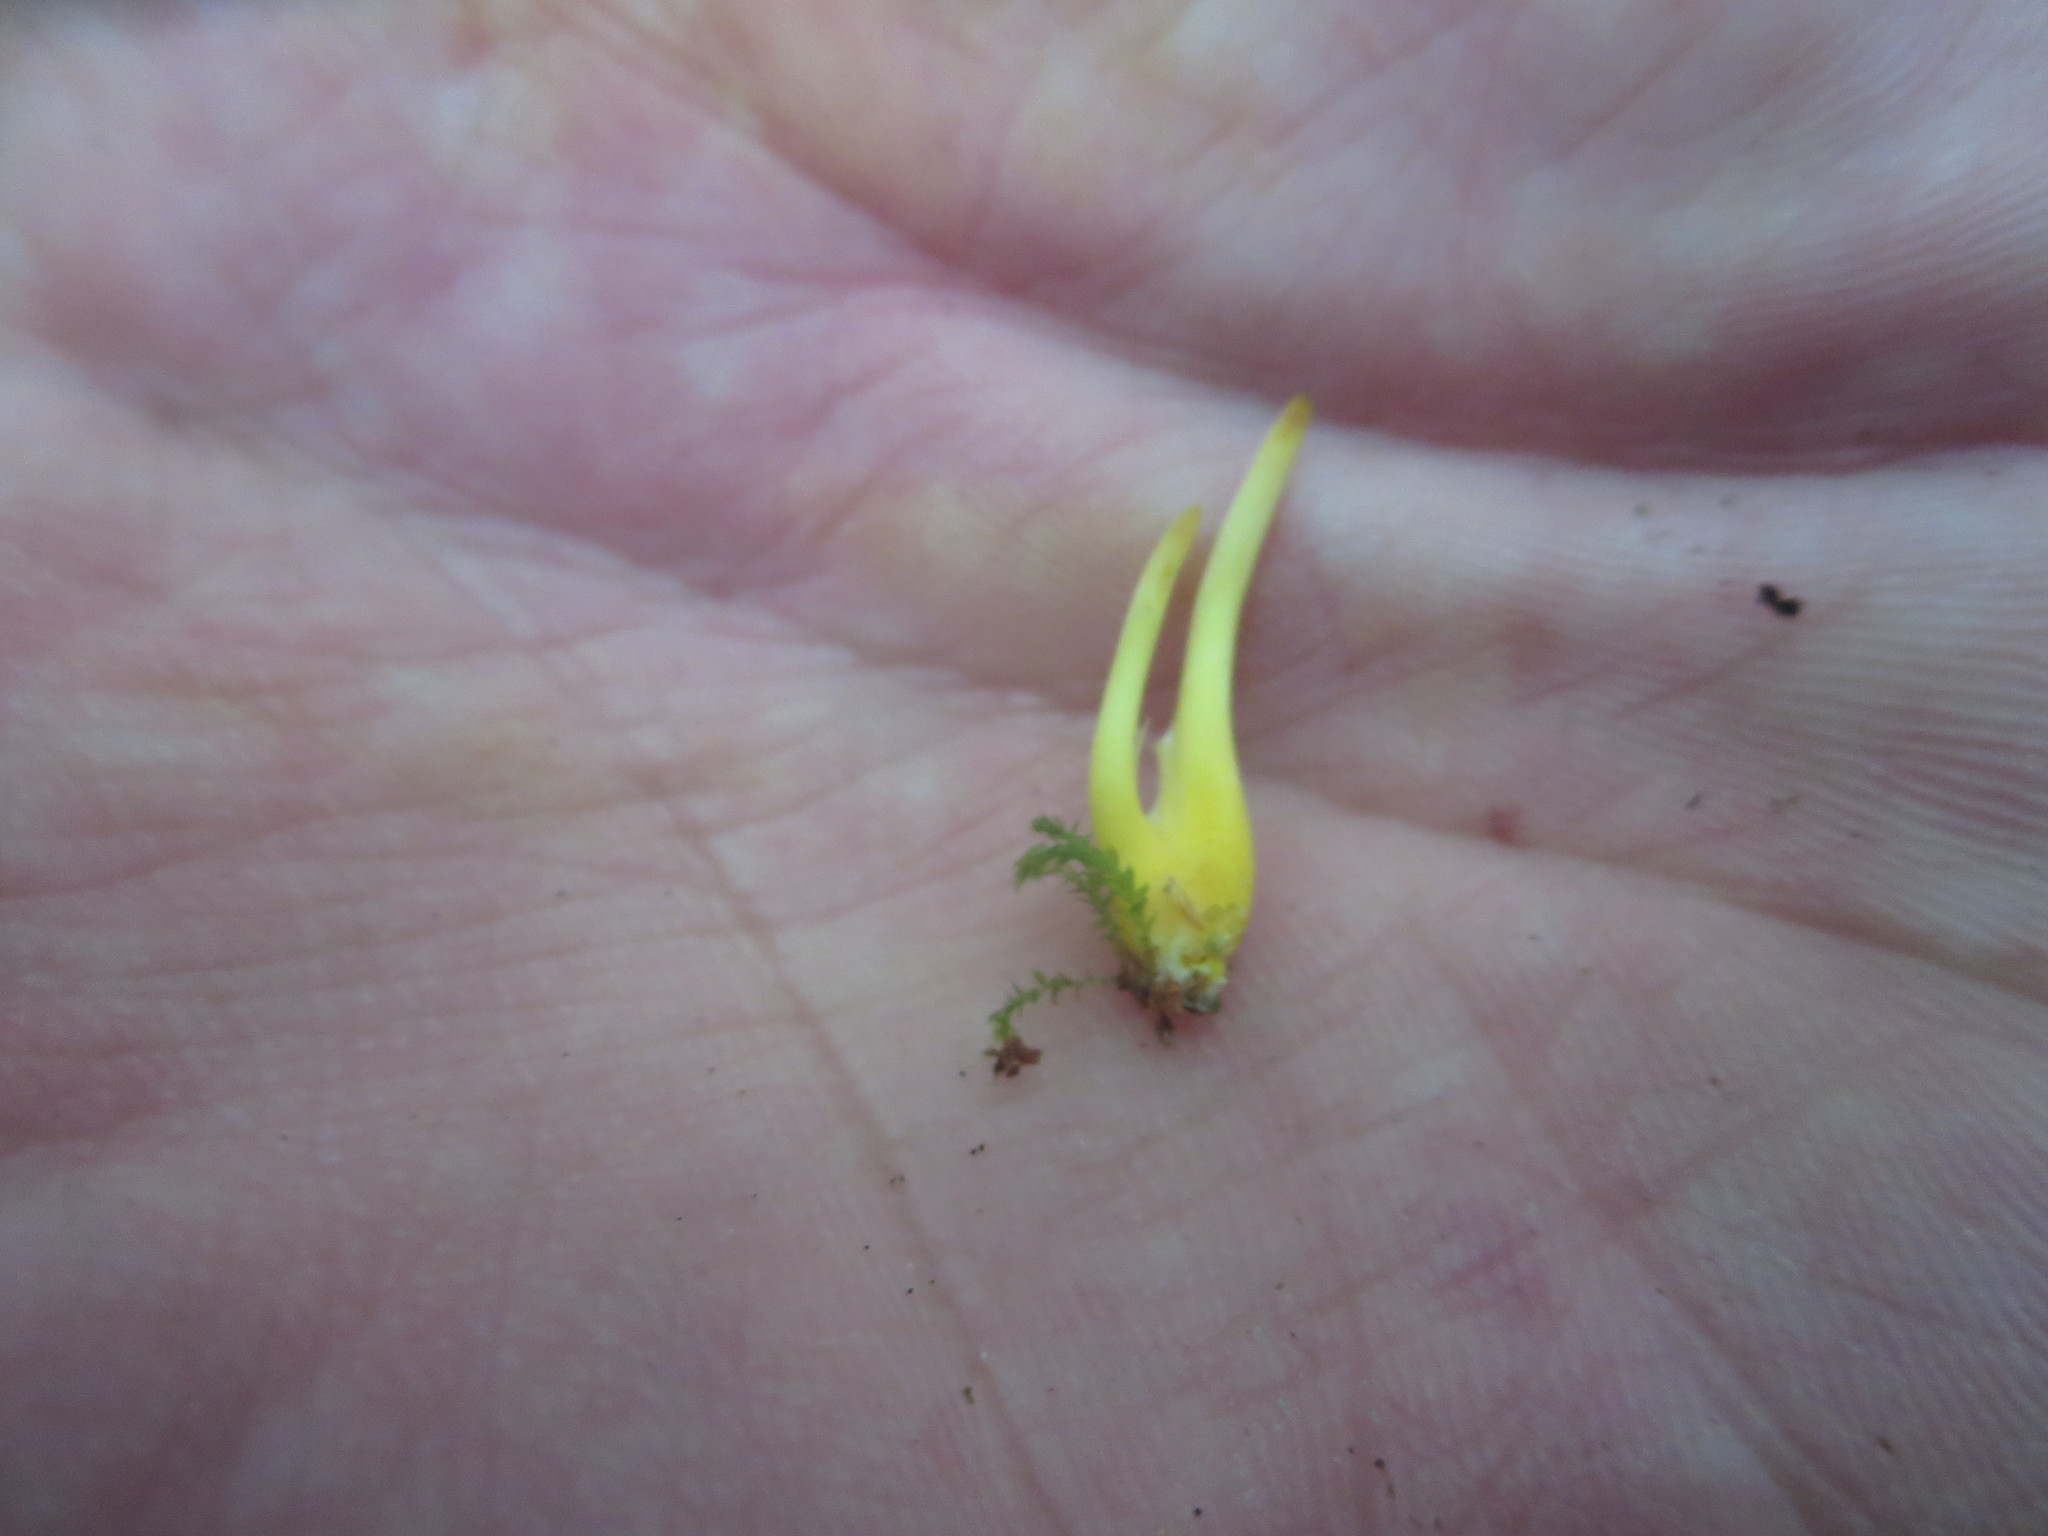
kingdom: Fungi
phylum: Basidiomycota
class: Agaricomycetes
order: Agaricales
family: Clavariaceae
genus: Clavulinopsis
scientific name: Clavulinopsis laeticolor
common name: Handsome club
